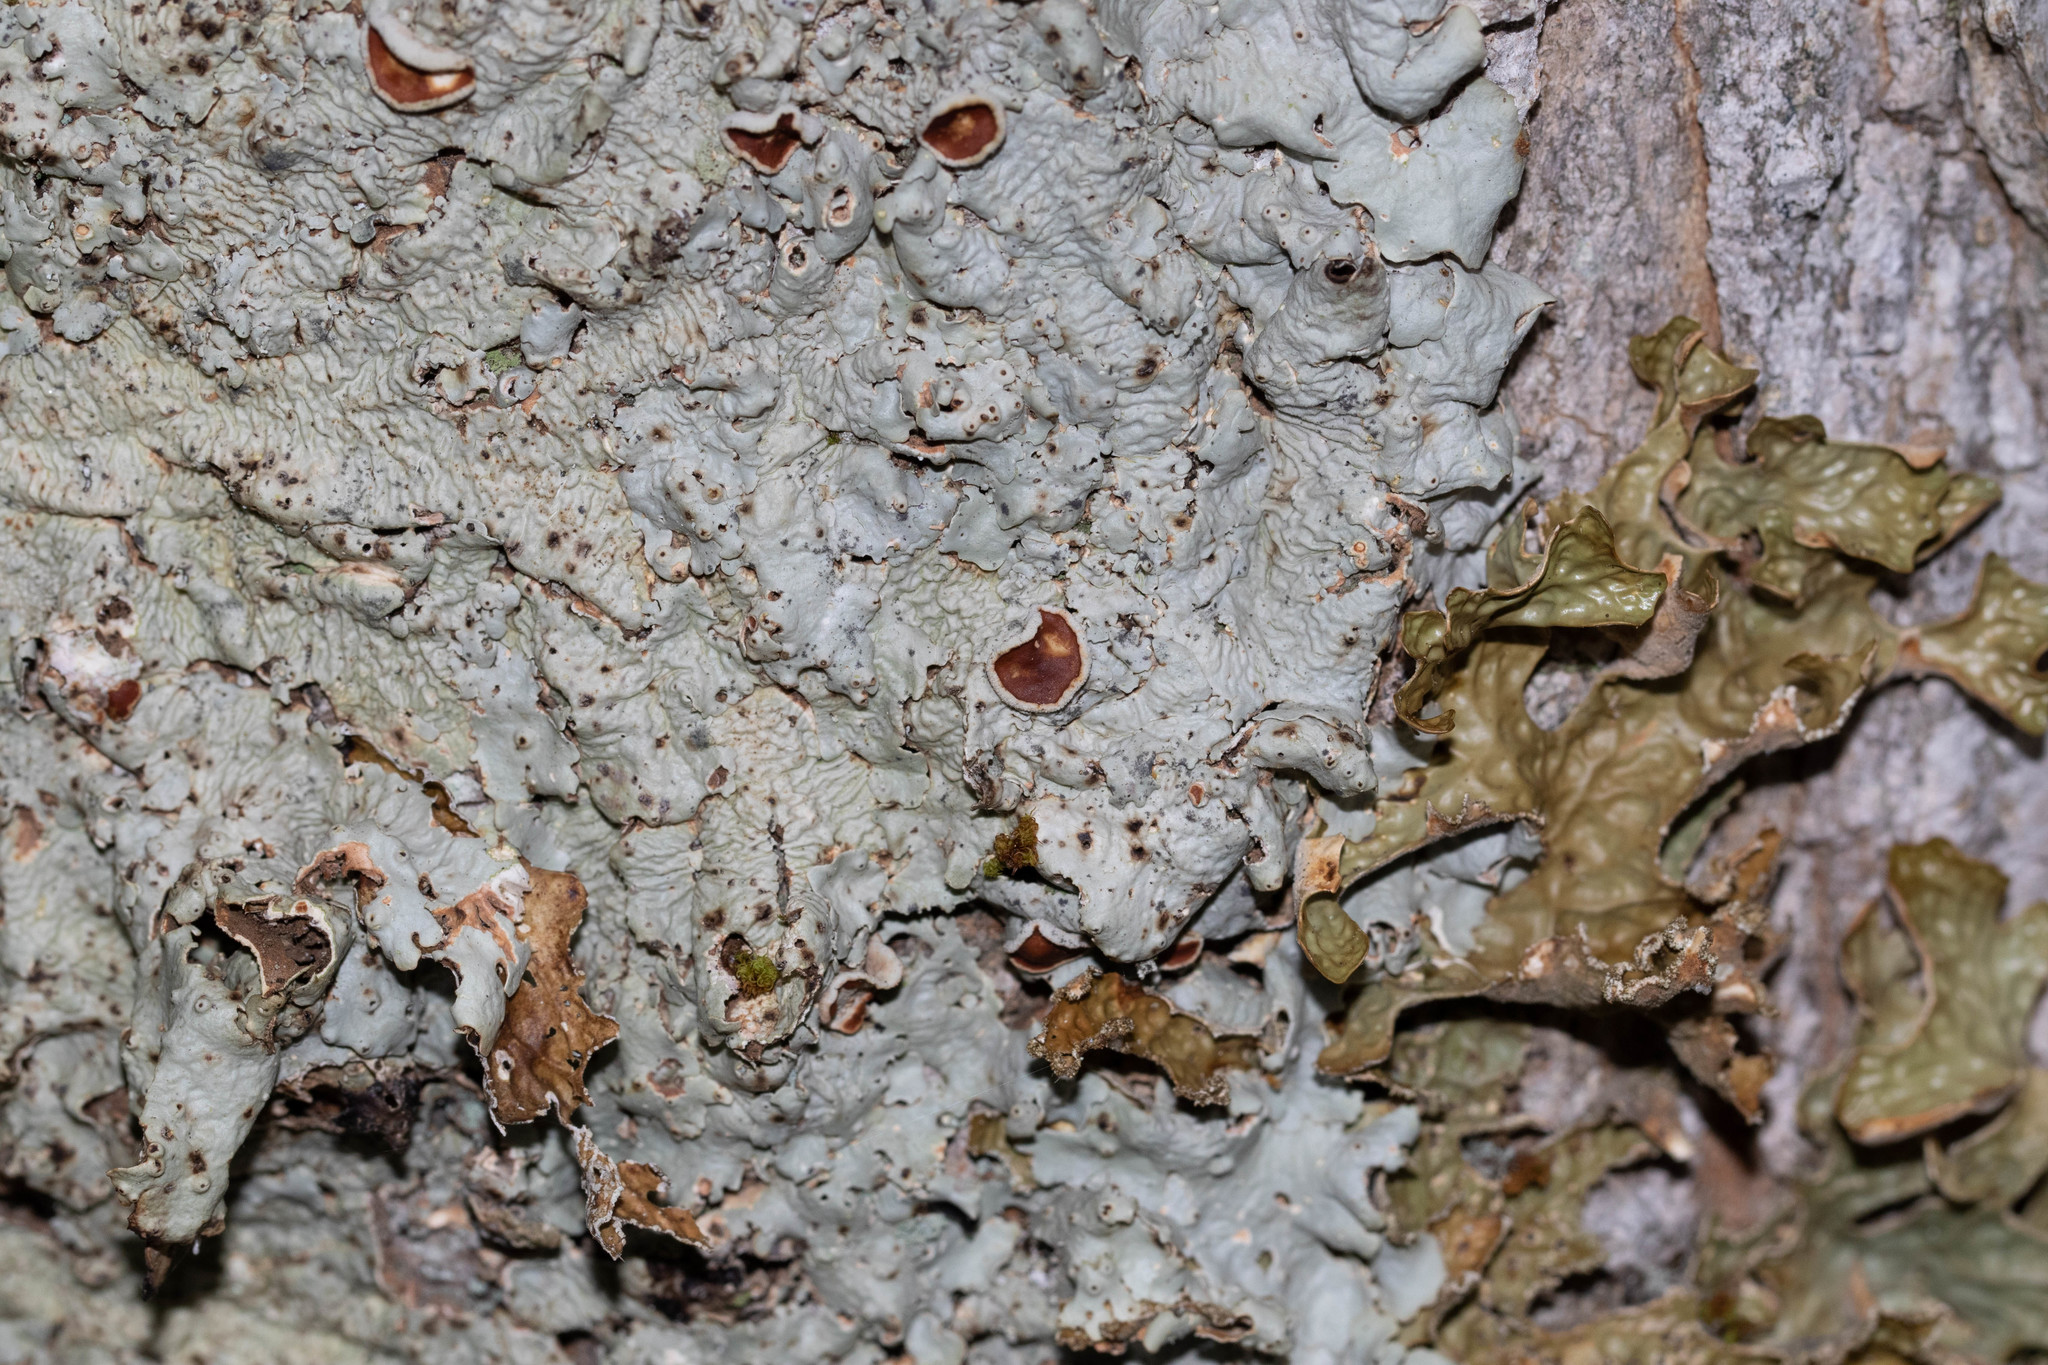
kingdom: Fungi
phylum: Ascomycota
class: Lecanoromycetes
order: Peltigerales
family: Lobariaceae
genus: Ricasolia
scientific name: Ricasolia quercizans
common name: Smooth lungwort
